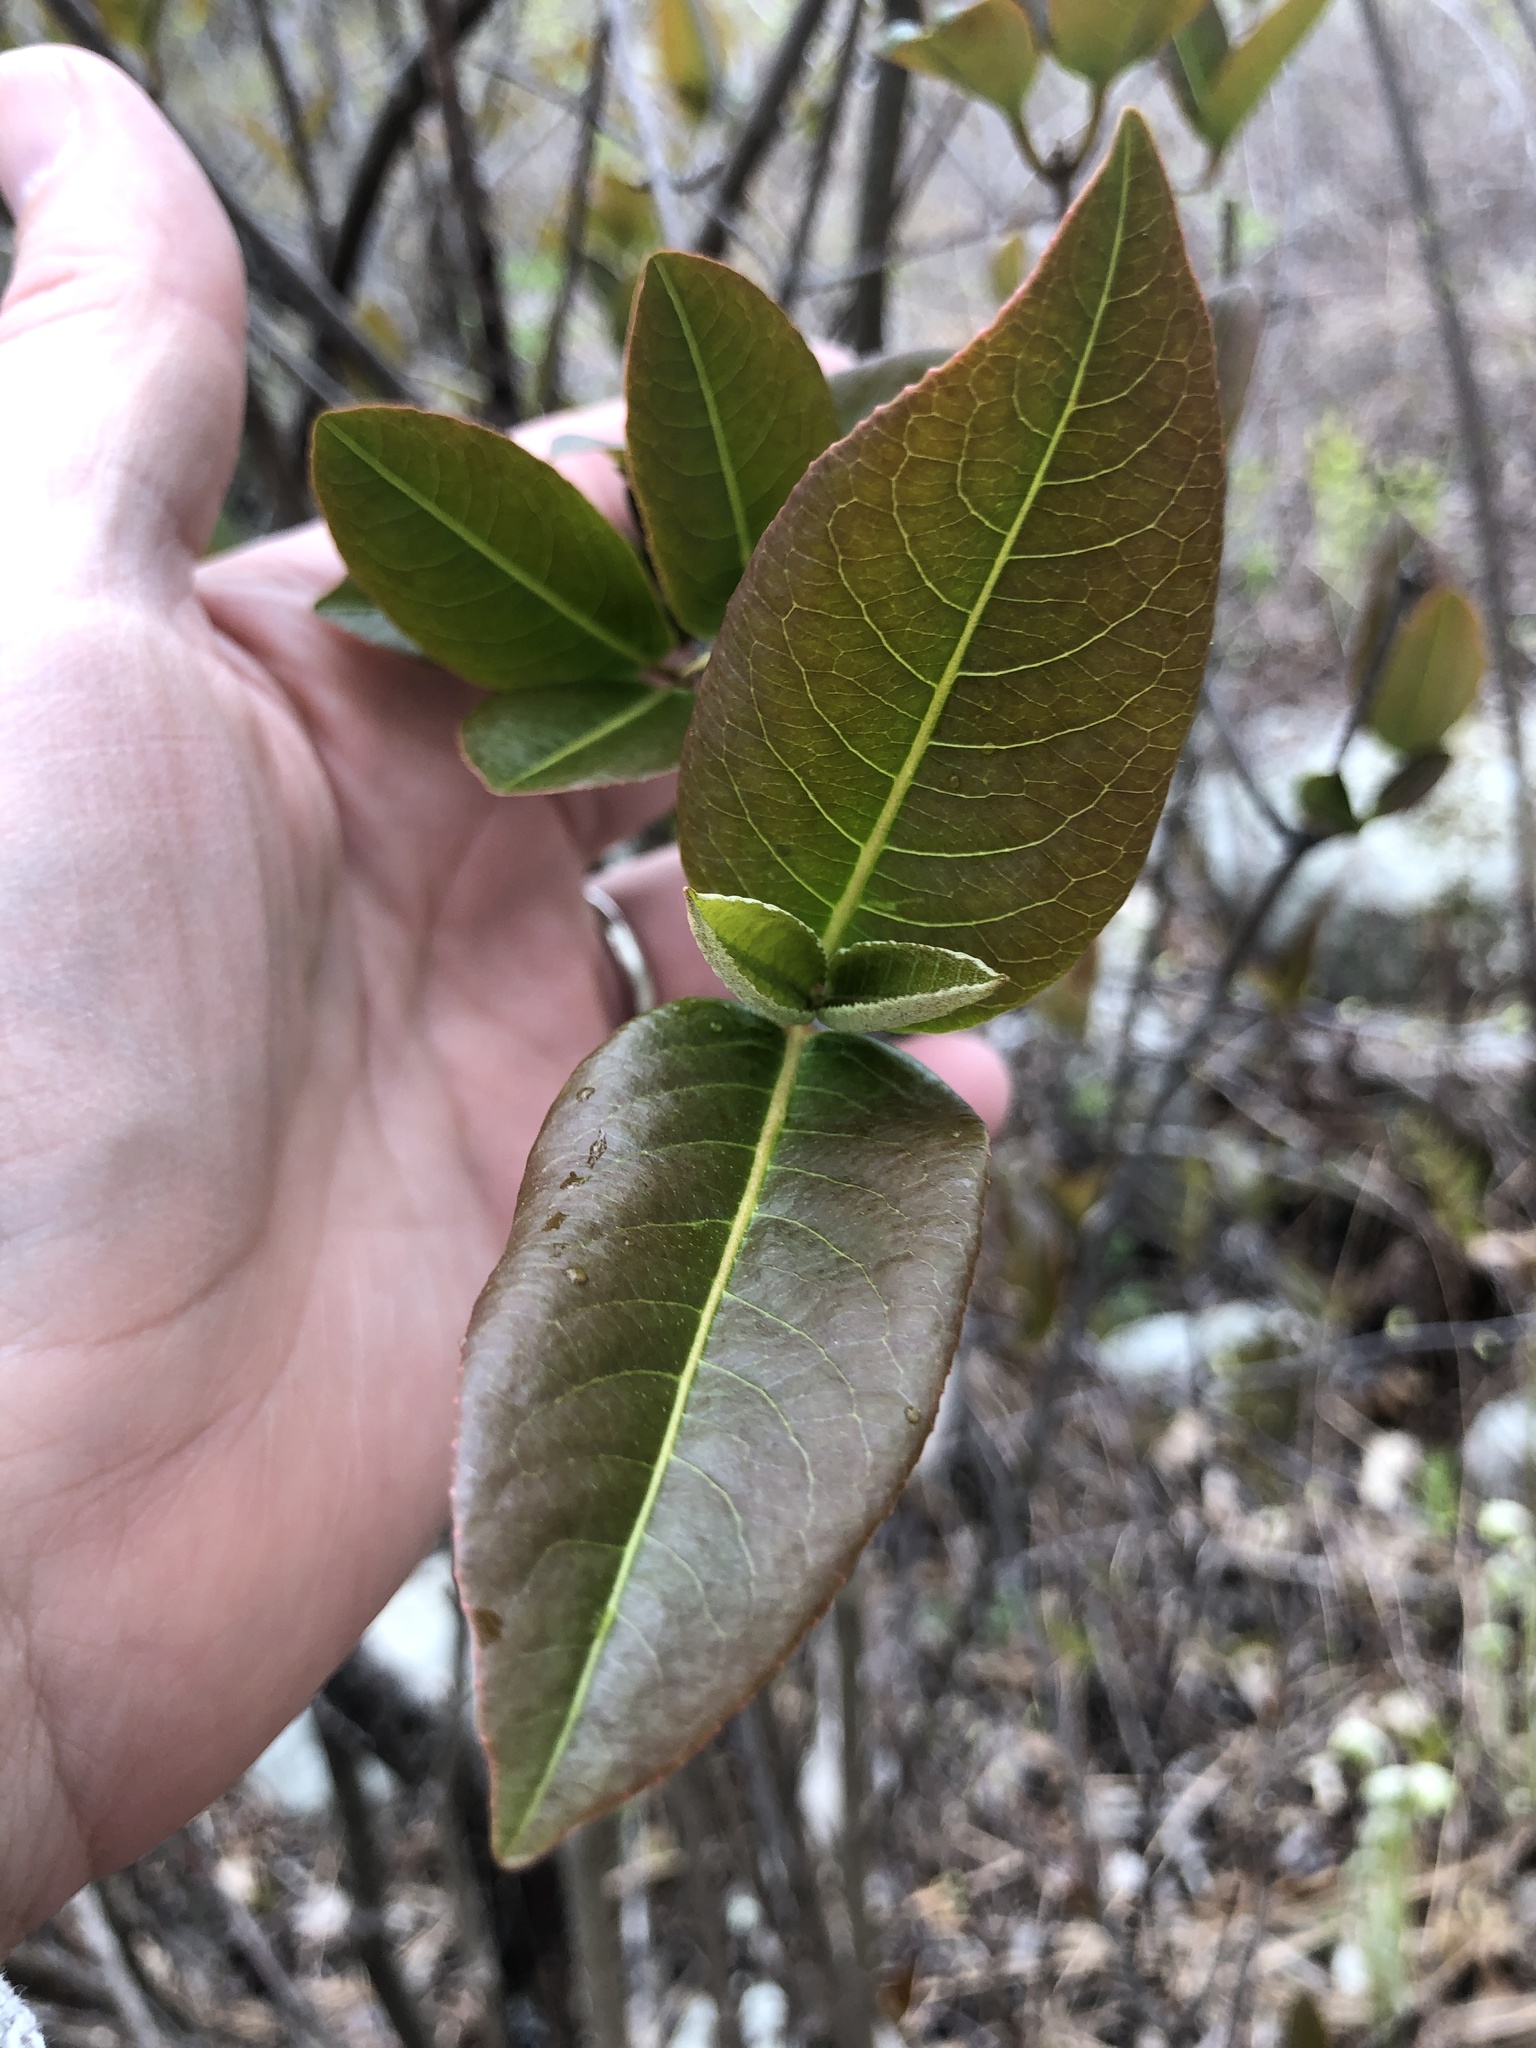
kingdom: Plantae
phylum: Tracheophyta
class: Magnoliopsida
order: Dipsacales
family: Viburnaceae
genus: Viburnum
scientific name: Viburnum cassinoides
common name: Swamp haw
